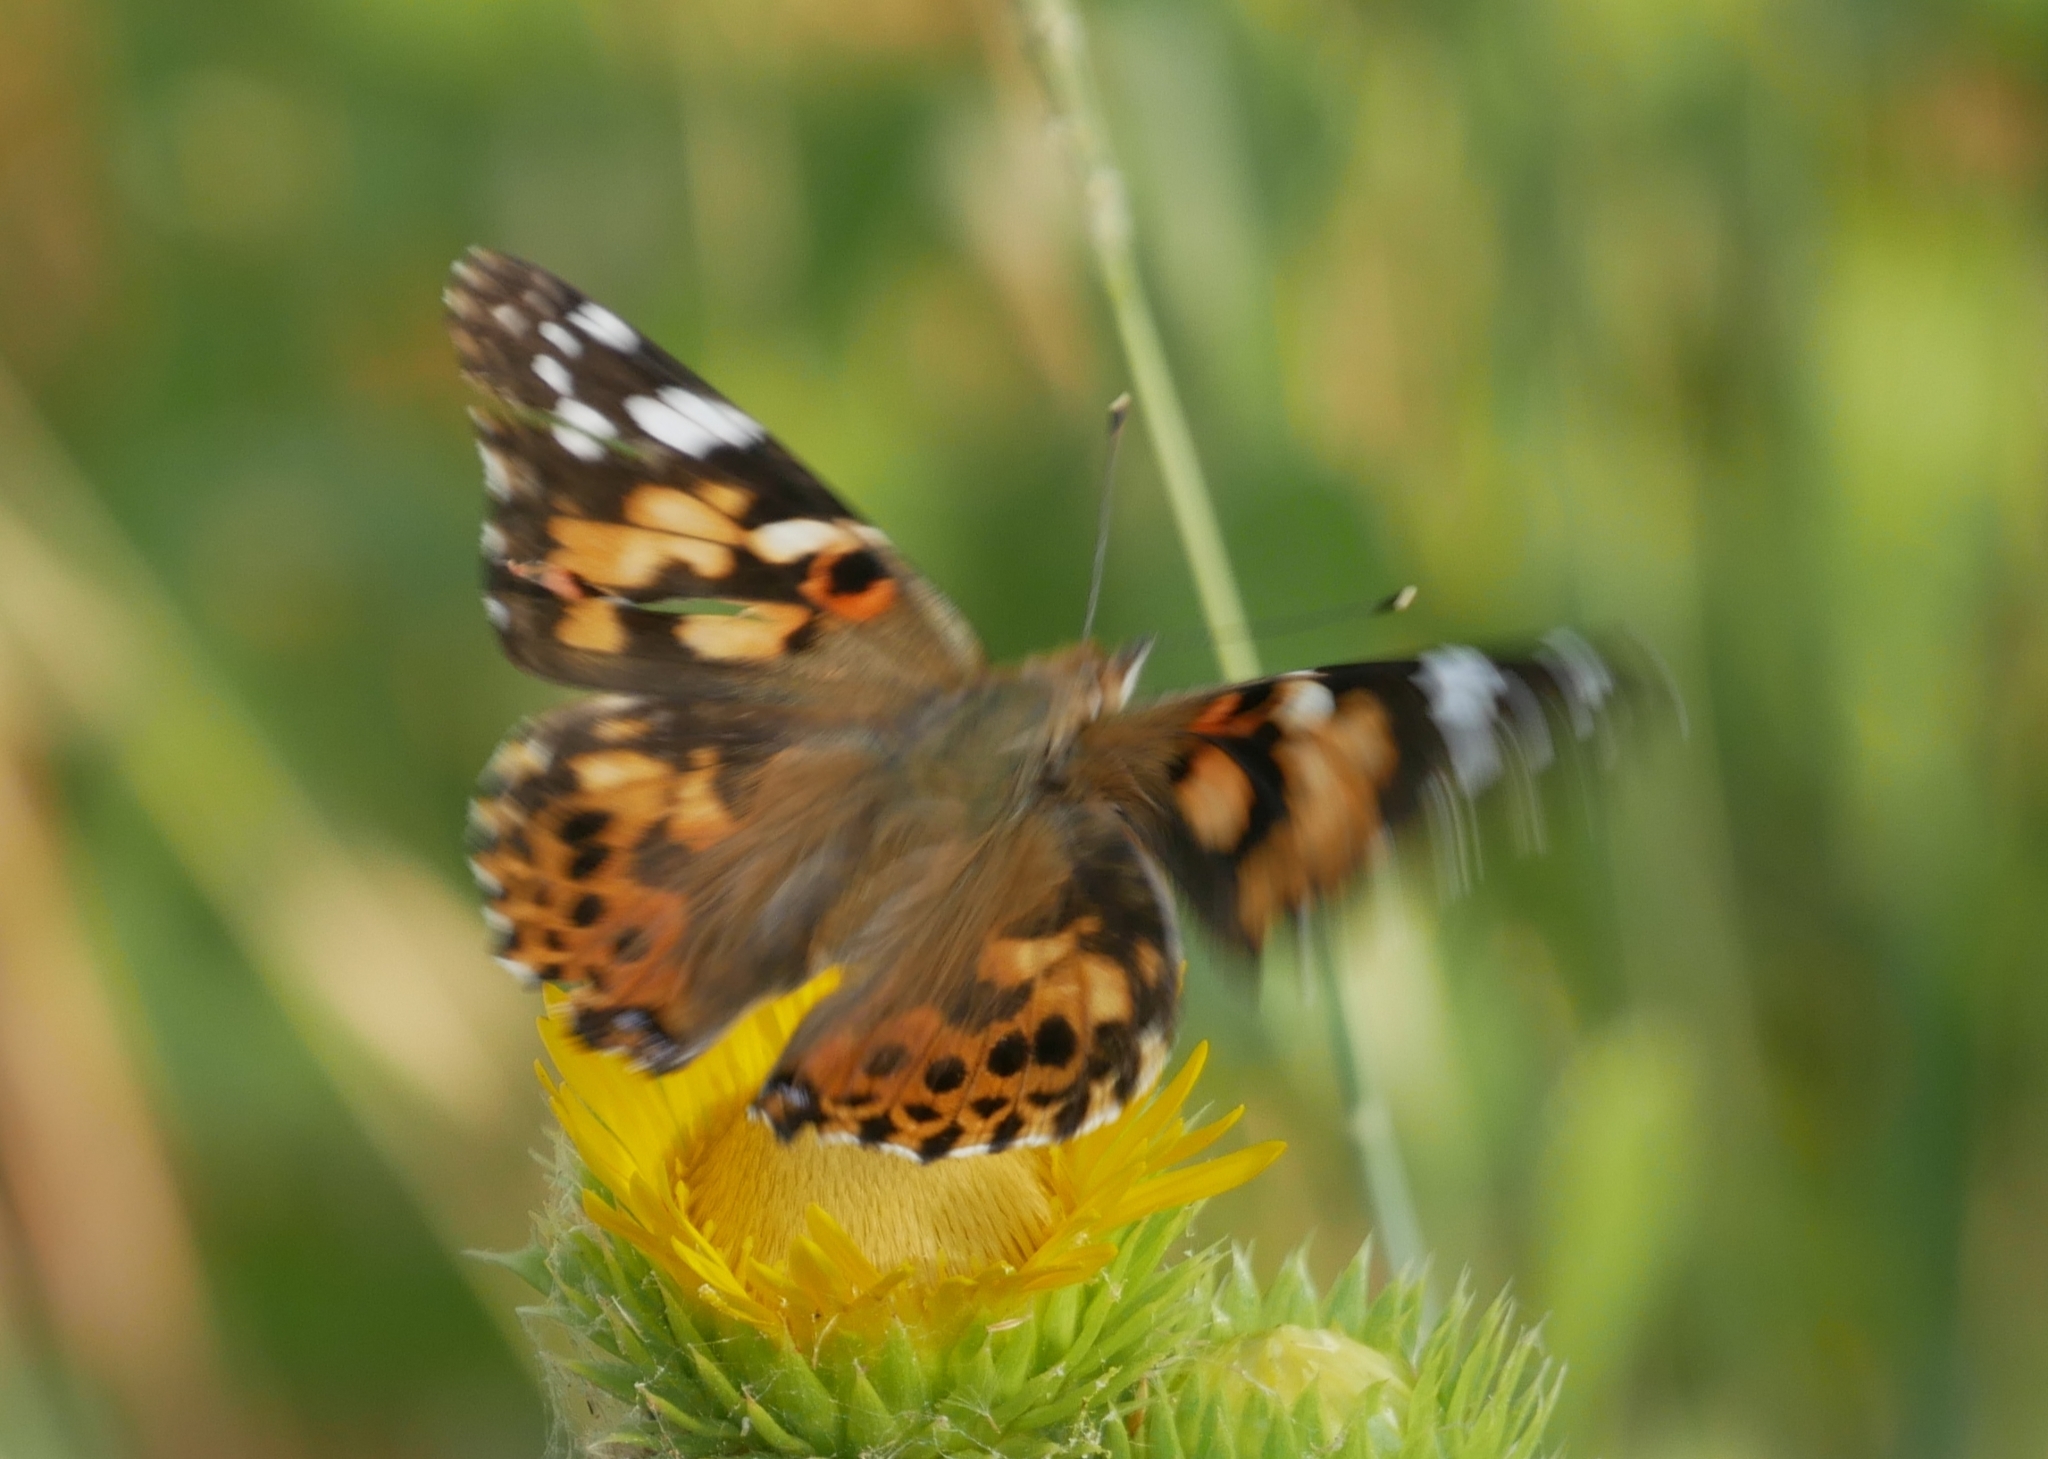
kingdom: Animalia
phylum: Arthropoda
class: Insecta
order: Lepidoptera
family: Nymphalidae
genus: Vanessa
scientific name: Vanessa cardui
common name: Painted lady
